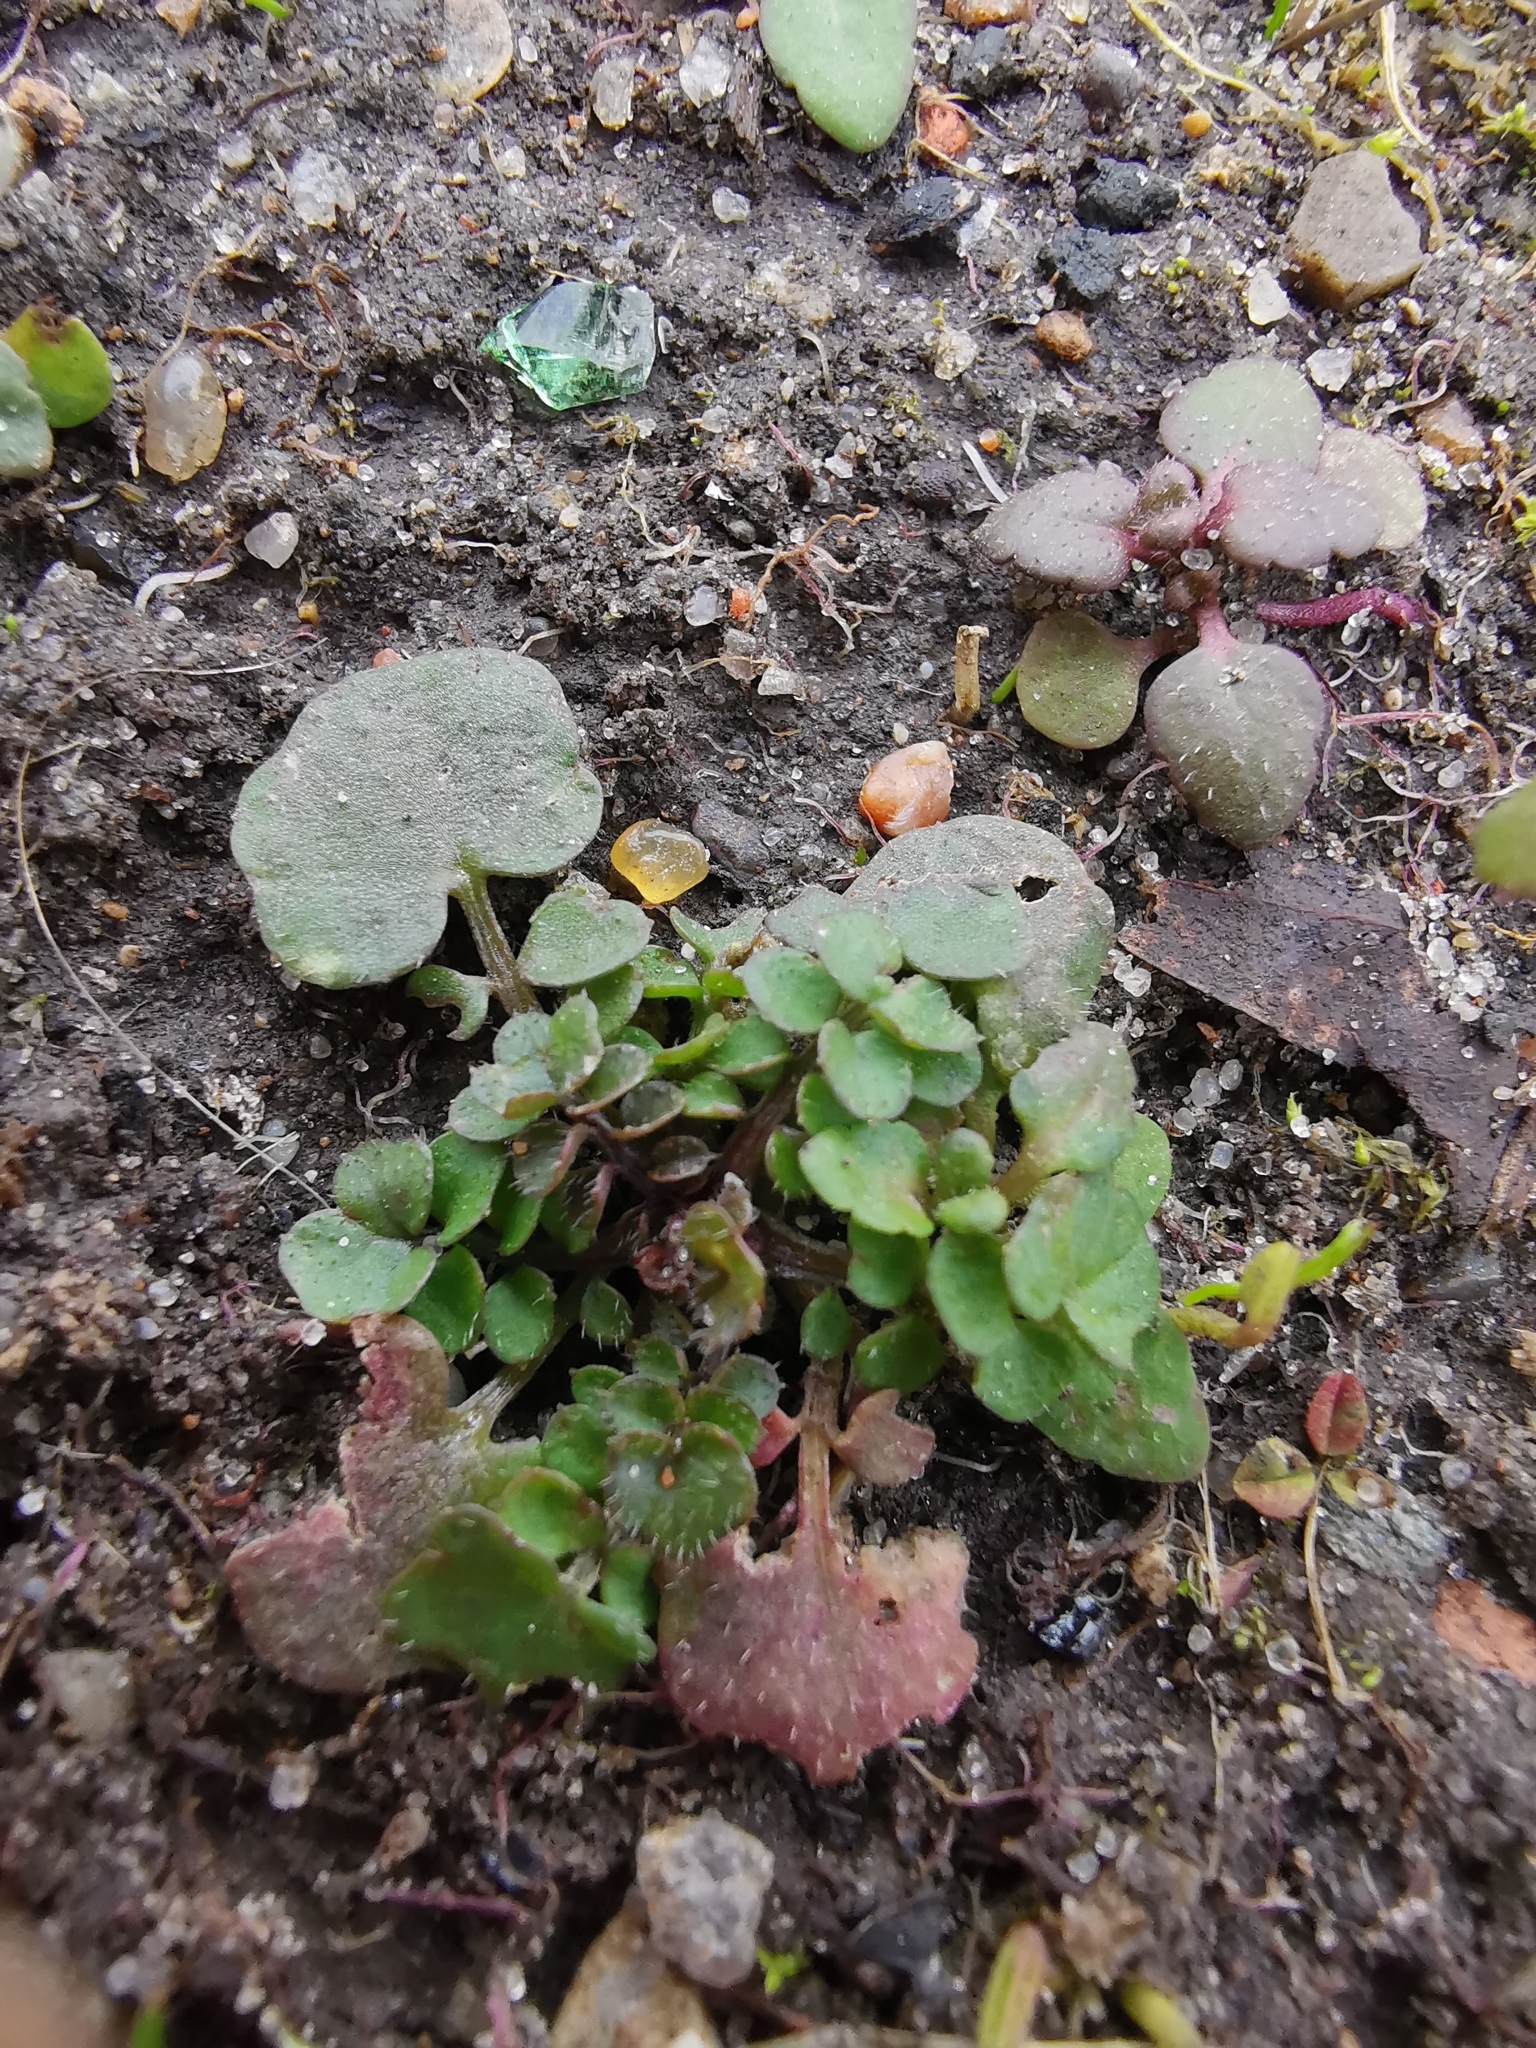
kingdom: Plantae
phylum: Tracheophyta
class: Magnoliopsida
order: Brassicales
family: Brassicaceae
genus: Cardamine
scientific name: Cardamine hirsuta
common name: Hairy bittercress
